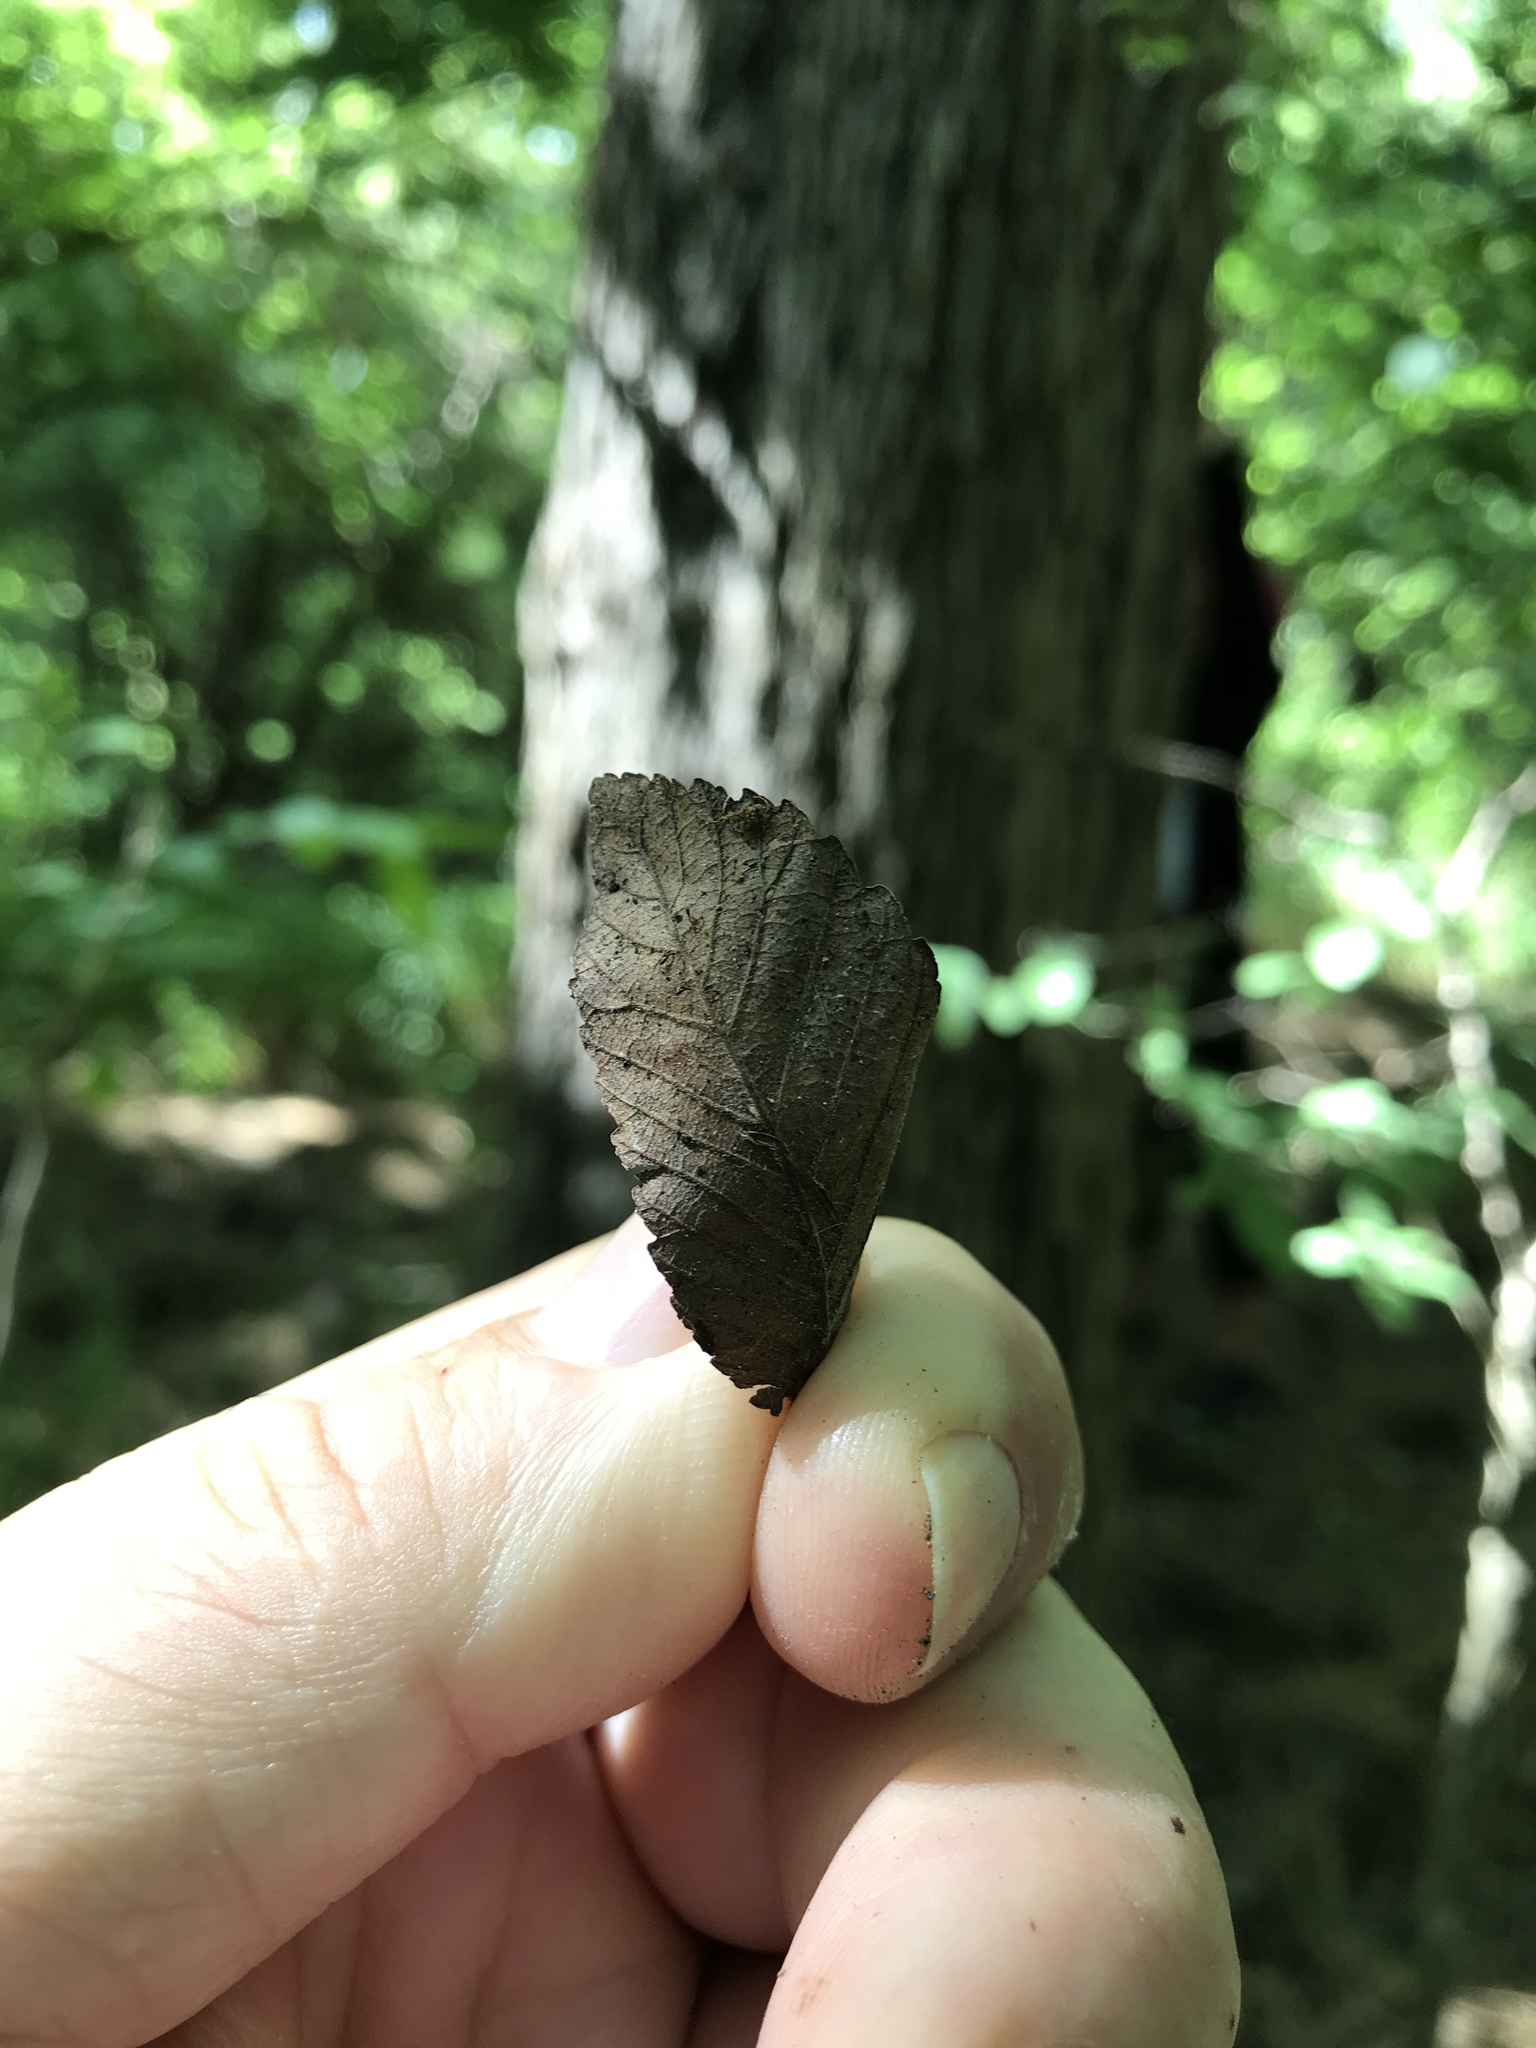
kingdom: Plantae
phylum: Tracheophyta
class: Magnoliopsida
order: Rosales
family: Ulmaceae
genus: Ulmus
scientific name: Ulmus crassifolia
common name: Basket elm
